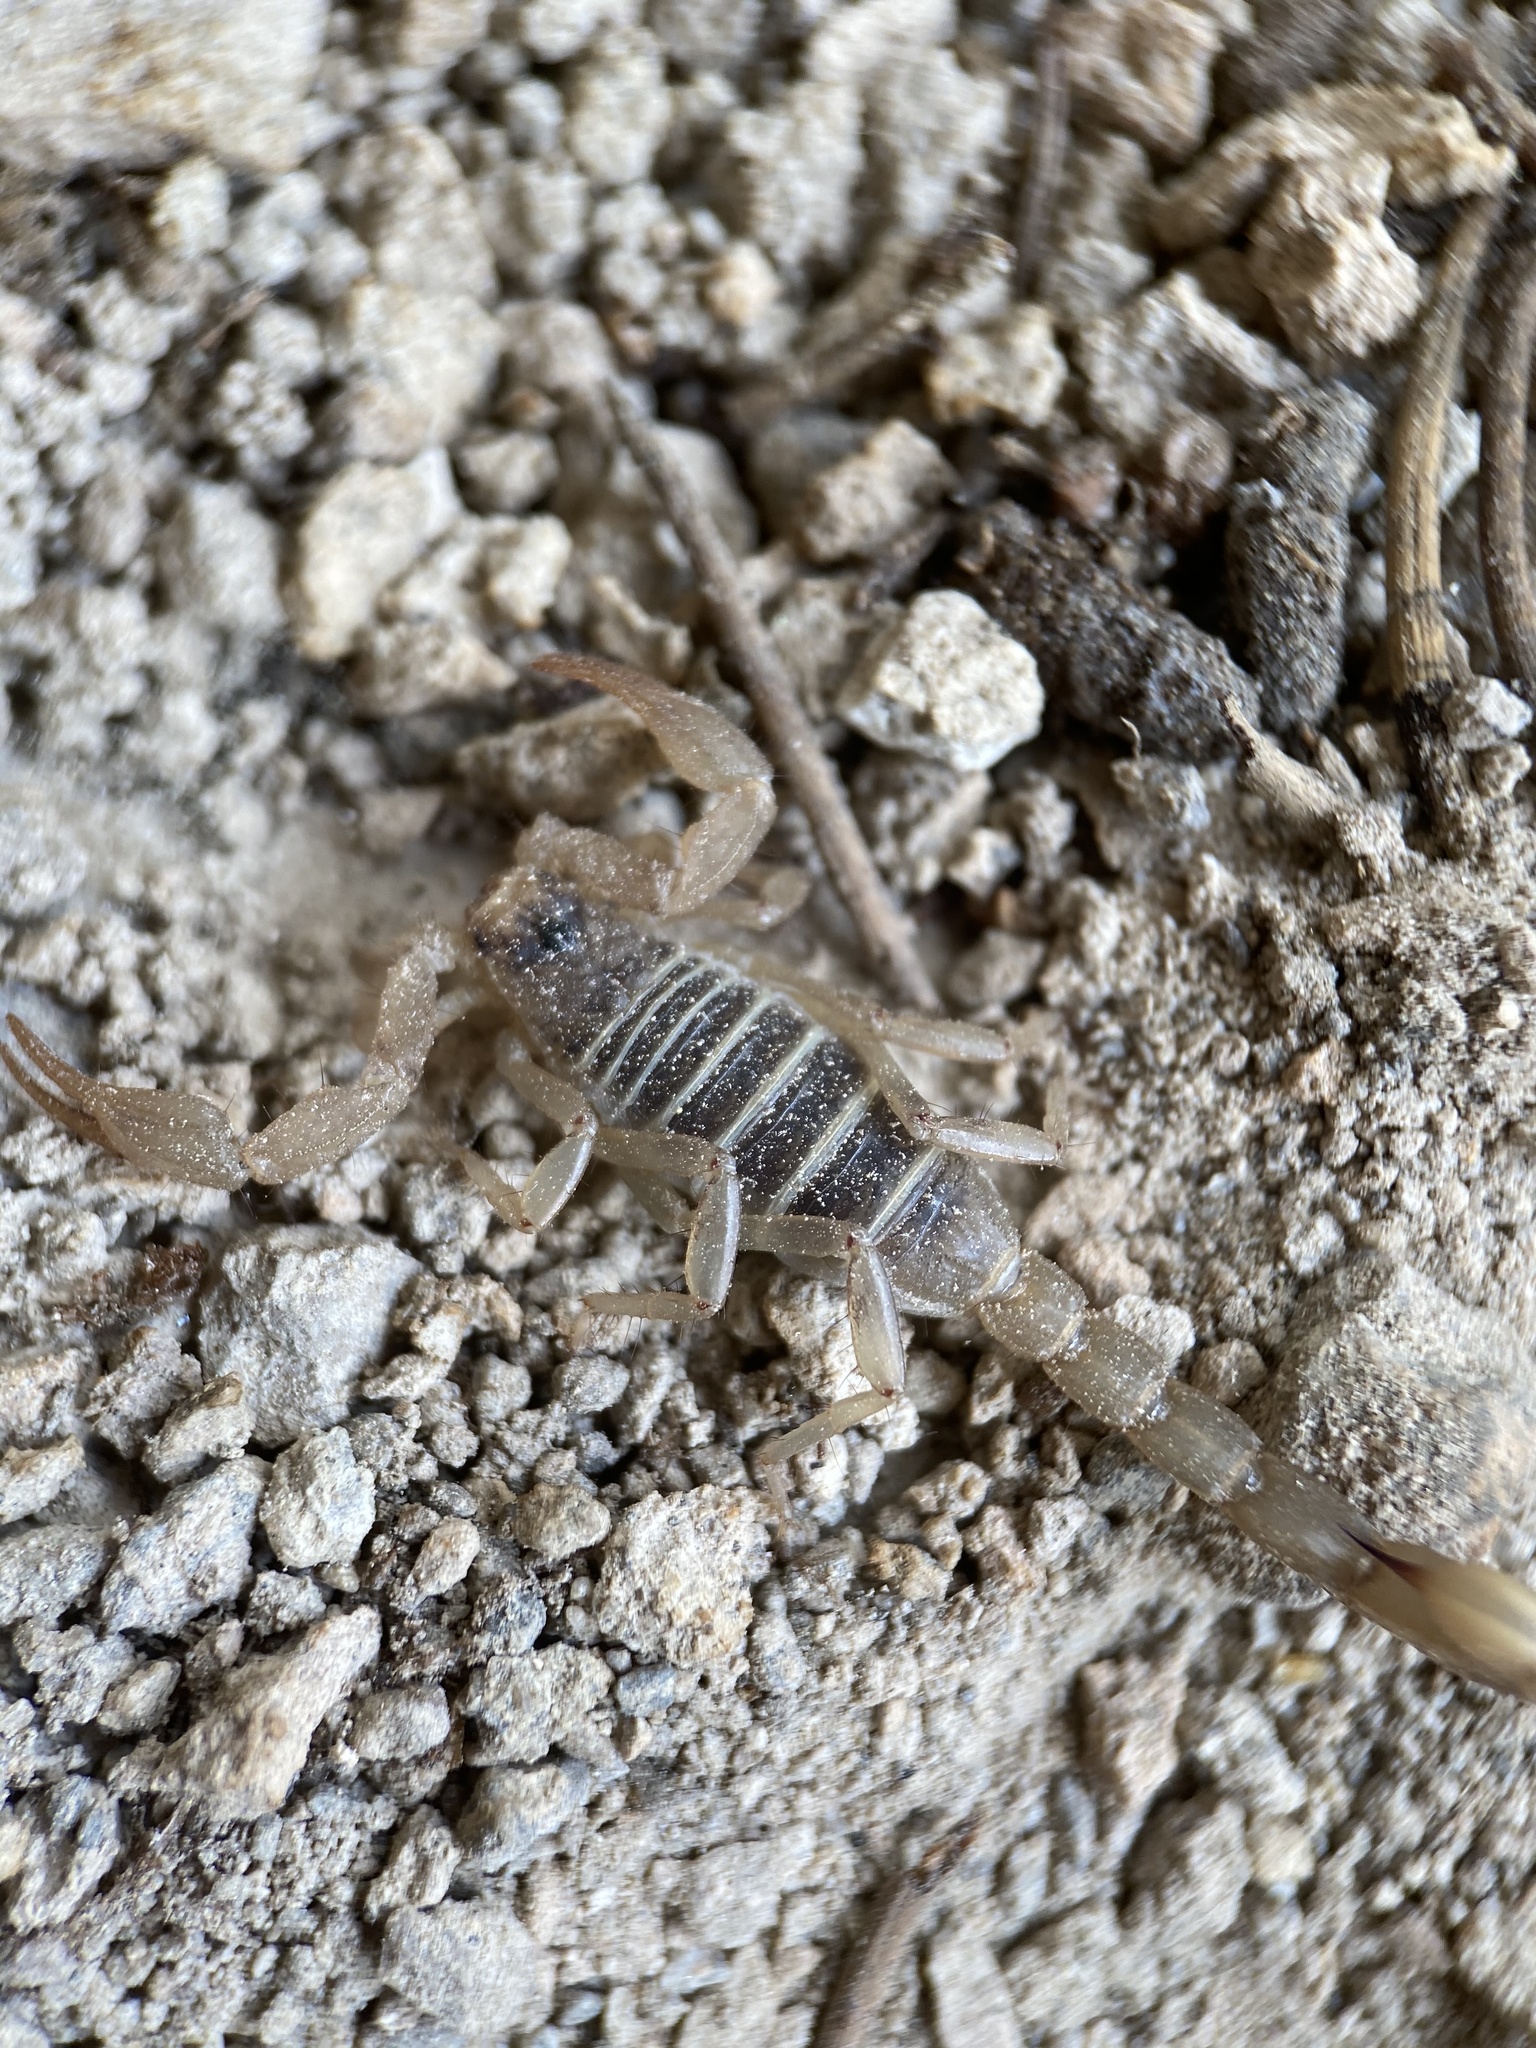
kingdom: Animalia
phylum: Arthropoda
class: Arachnida
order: Scorpiones
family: Vaejovidae
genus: Paruroctonus
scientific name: Paruroctonus boreus
